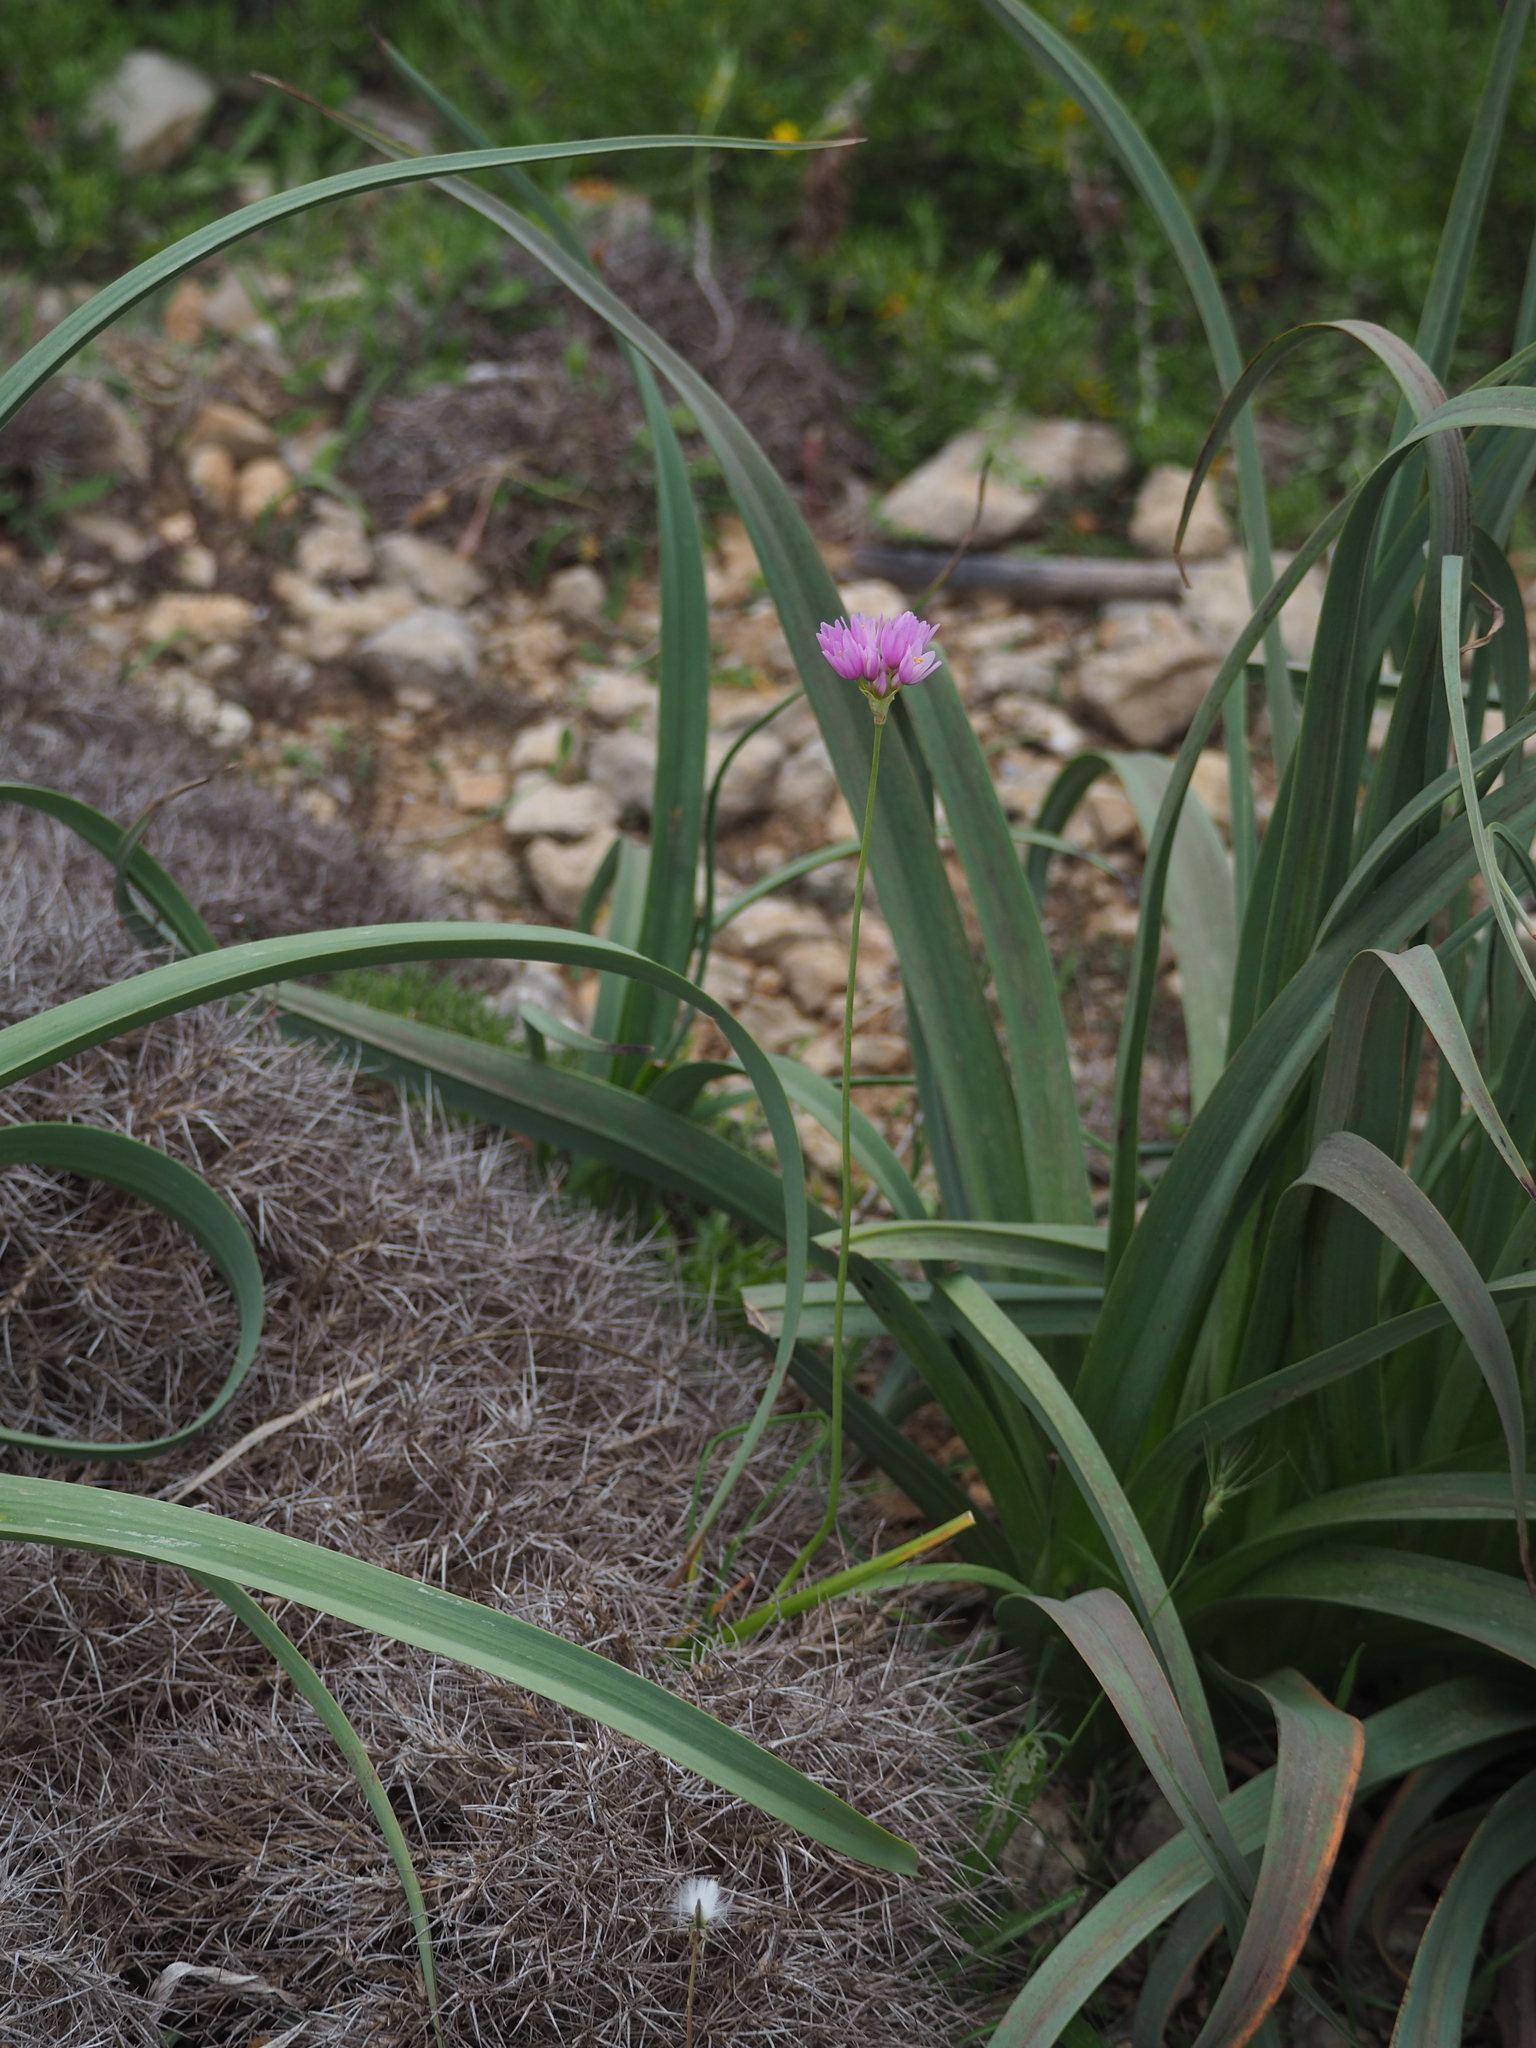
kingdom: Plantae
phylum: Tracheophyta
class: Liliopsida
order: Asparagales
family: Amaryllidaceae
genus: Allium
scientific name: Allium roseum
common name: Rosy garlic
